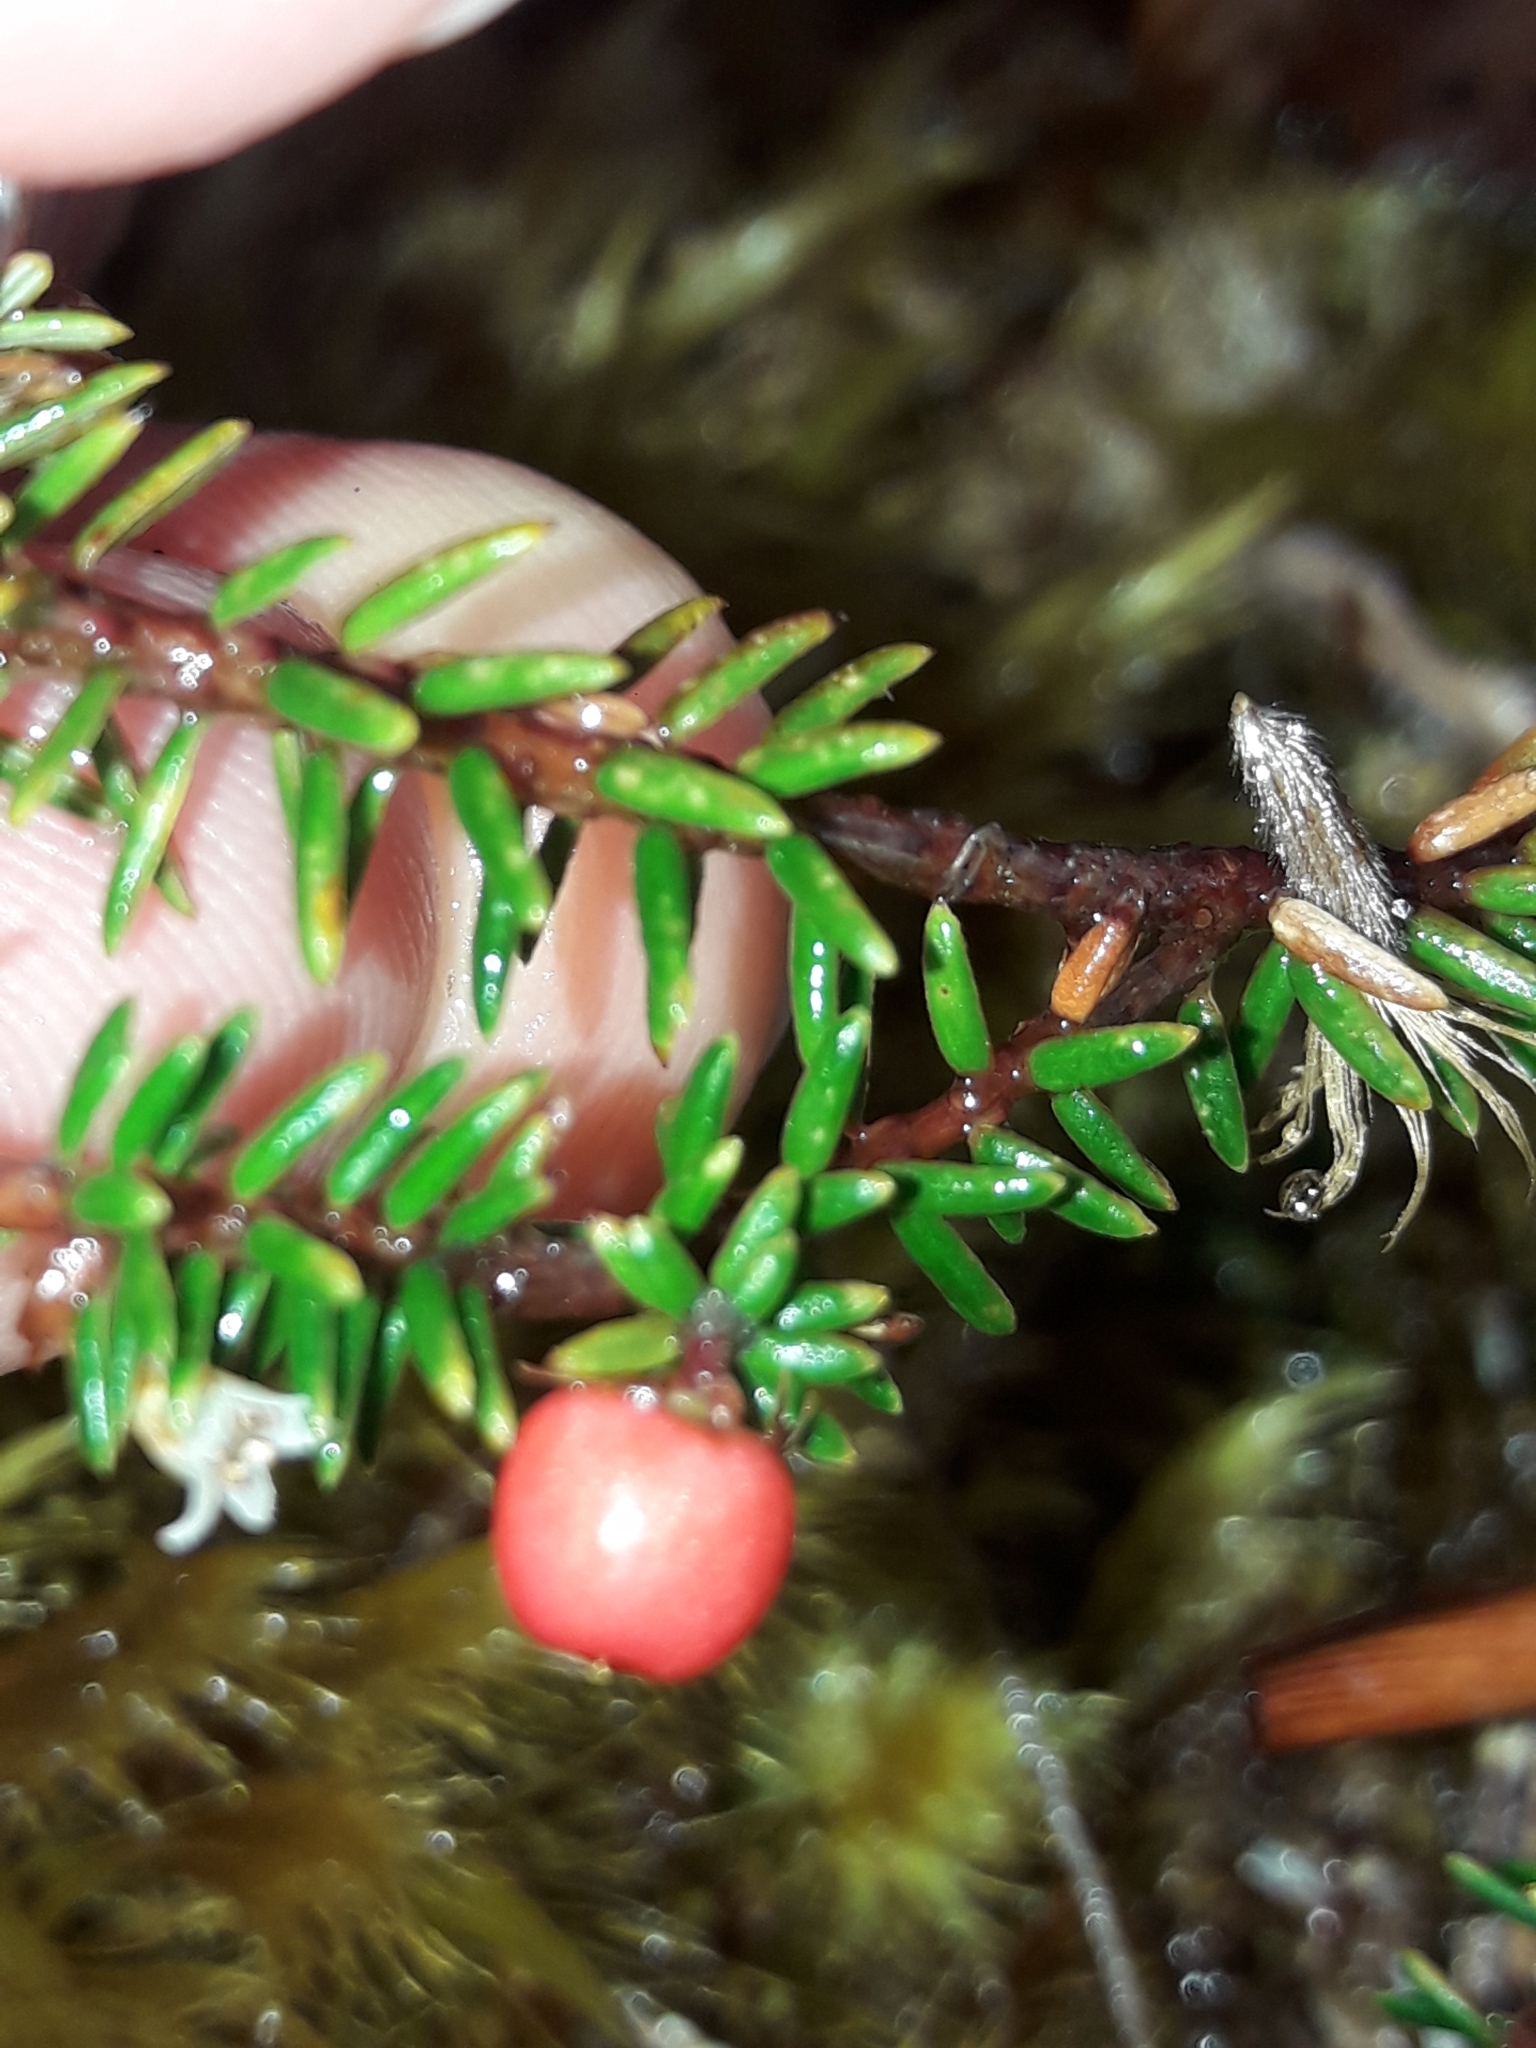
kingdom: Plantae
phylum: Tracheophyta
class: Magnoliopsida
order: Ericales
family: Ericaceae
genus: Androstoma
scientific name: Androstoma empetrifolia
